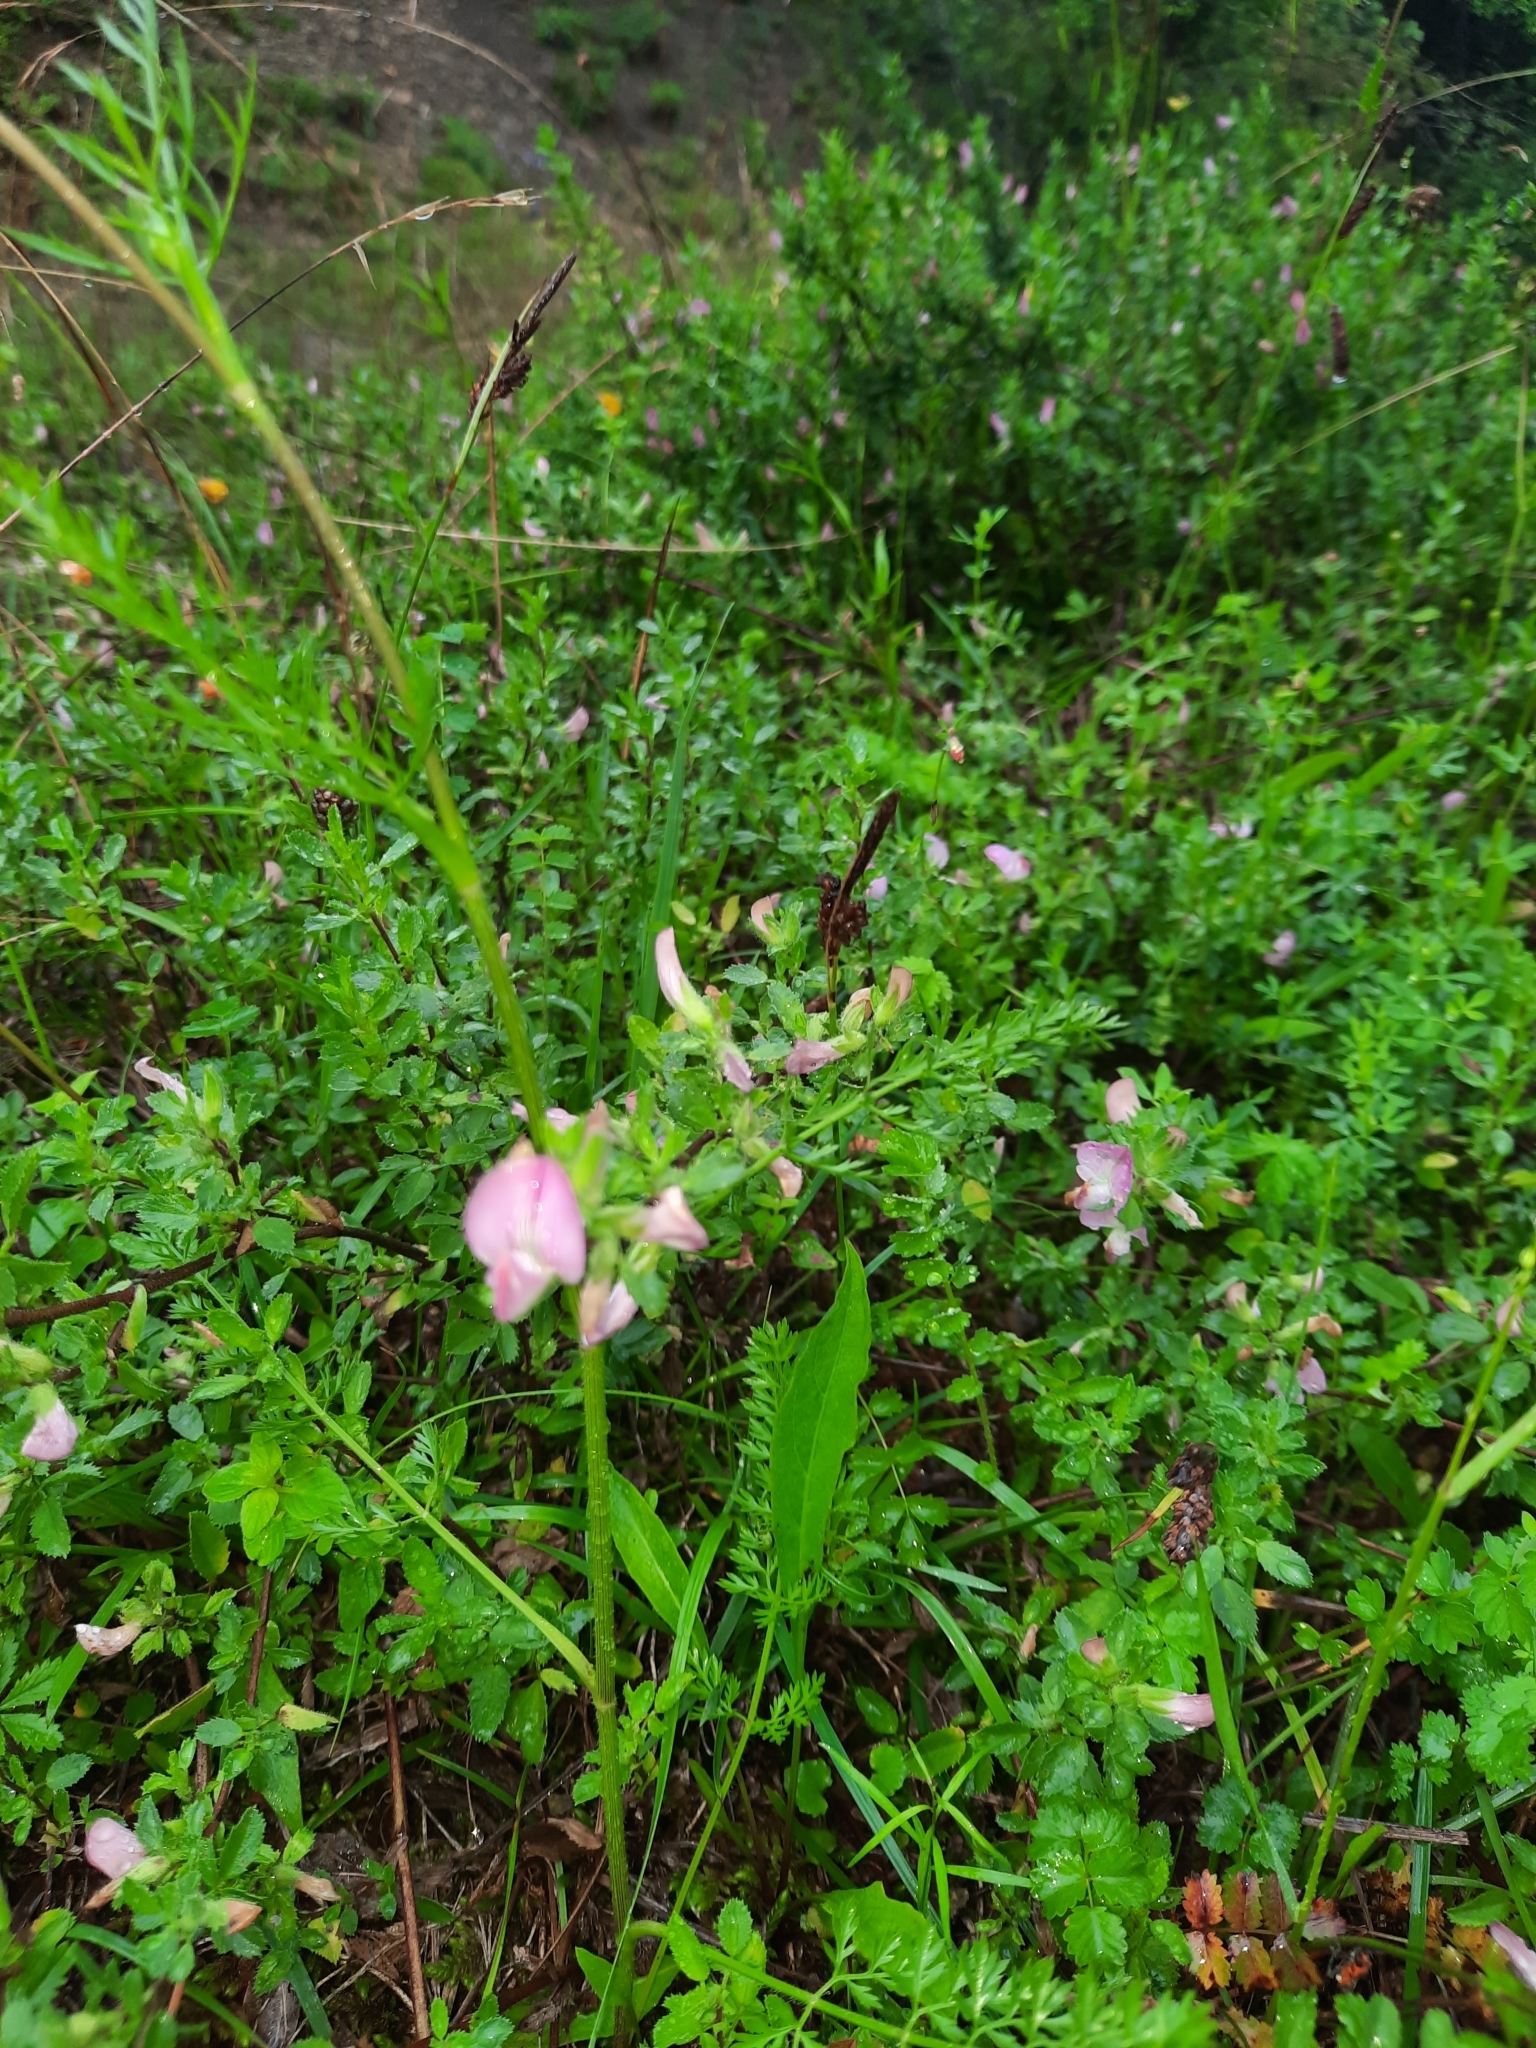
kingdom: Plantae
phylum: Tracheophyta
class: Magnoliopsida
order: Fabales
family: Fabaceae
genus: Ononis
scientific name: Ononis spinosa
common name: Spiny restharrow
